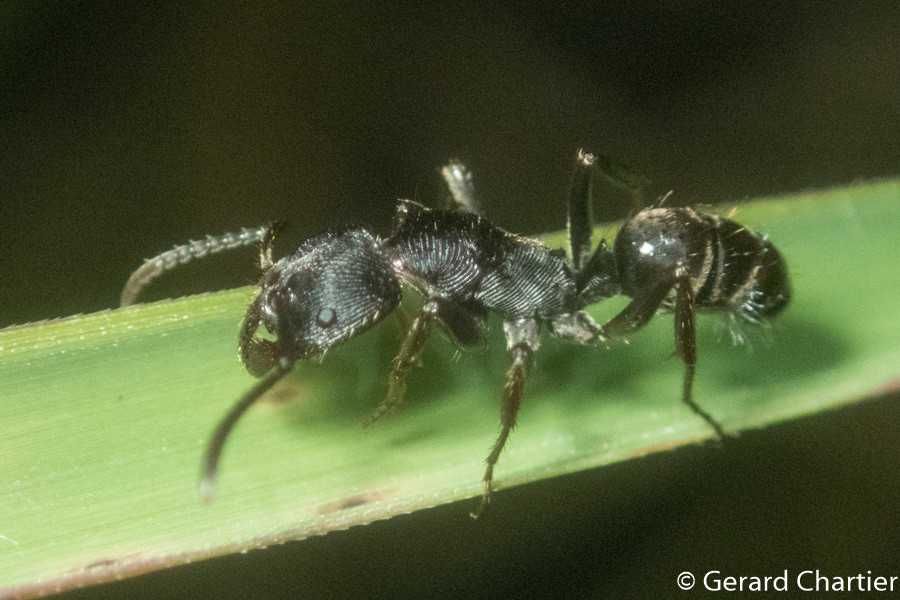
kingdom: Animalia
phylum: Arthropoda
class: Insecta
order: Hymenoptera
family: Formicidae
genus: Odontoponera
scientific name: Odontoponera denticulata
